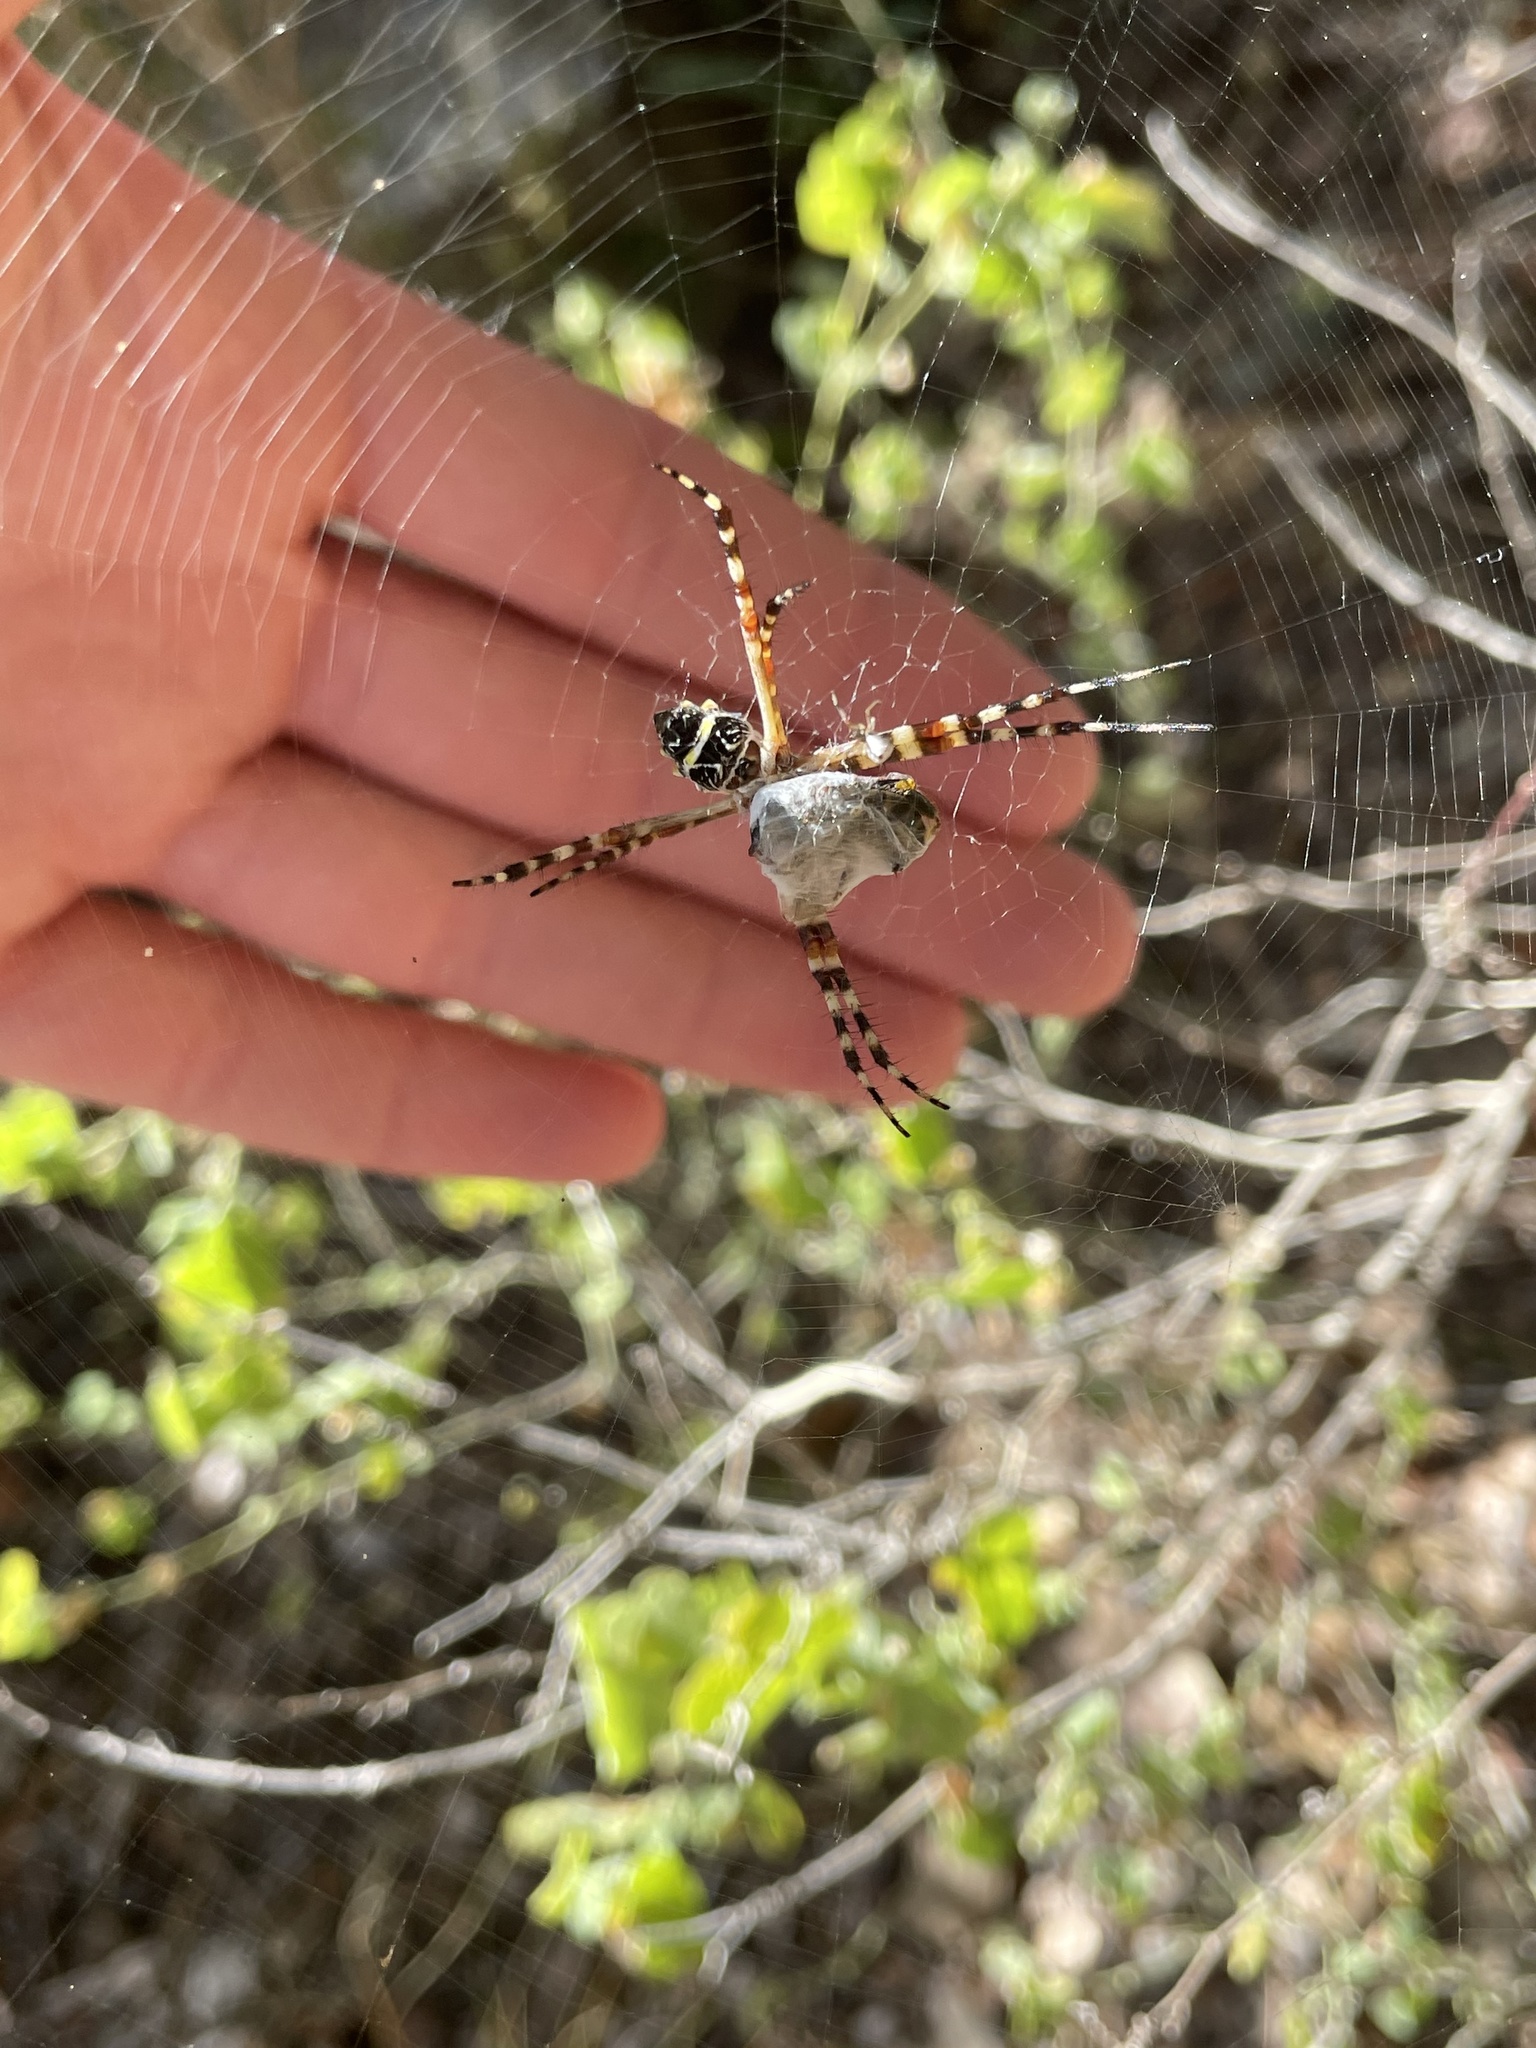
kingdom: Animalia
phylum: Arthropoda
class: Arachnida
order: Araneae
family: Araneidae
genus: Argiope
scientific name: Argiope argentata
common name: Orb weavers
